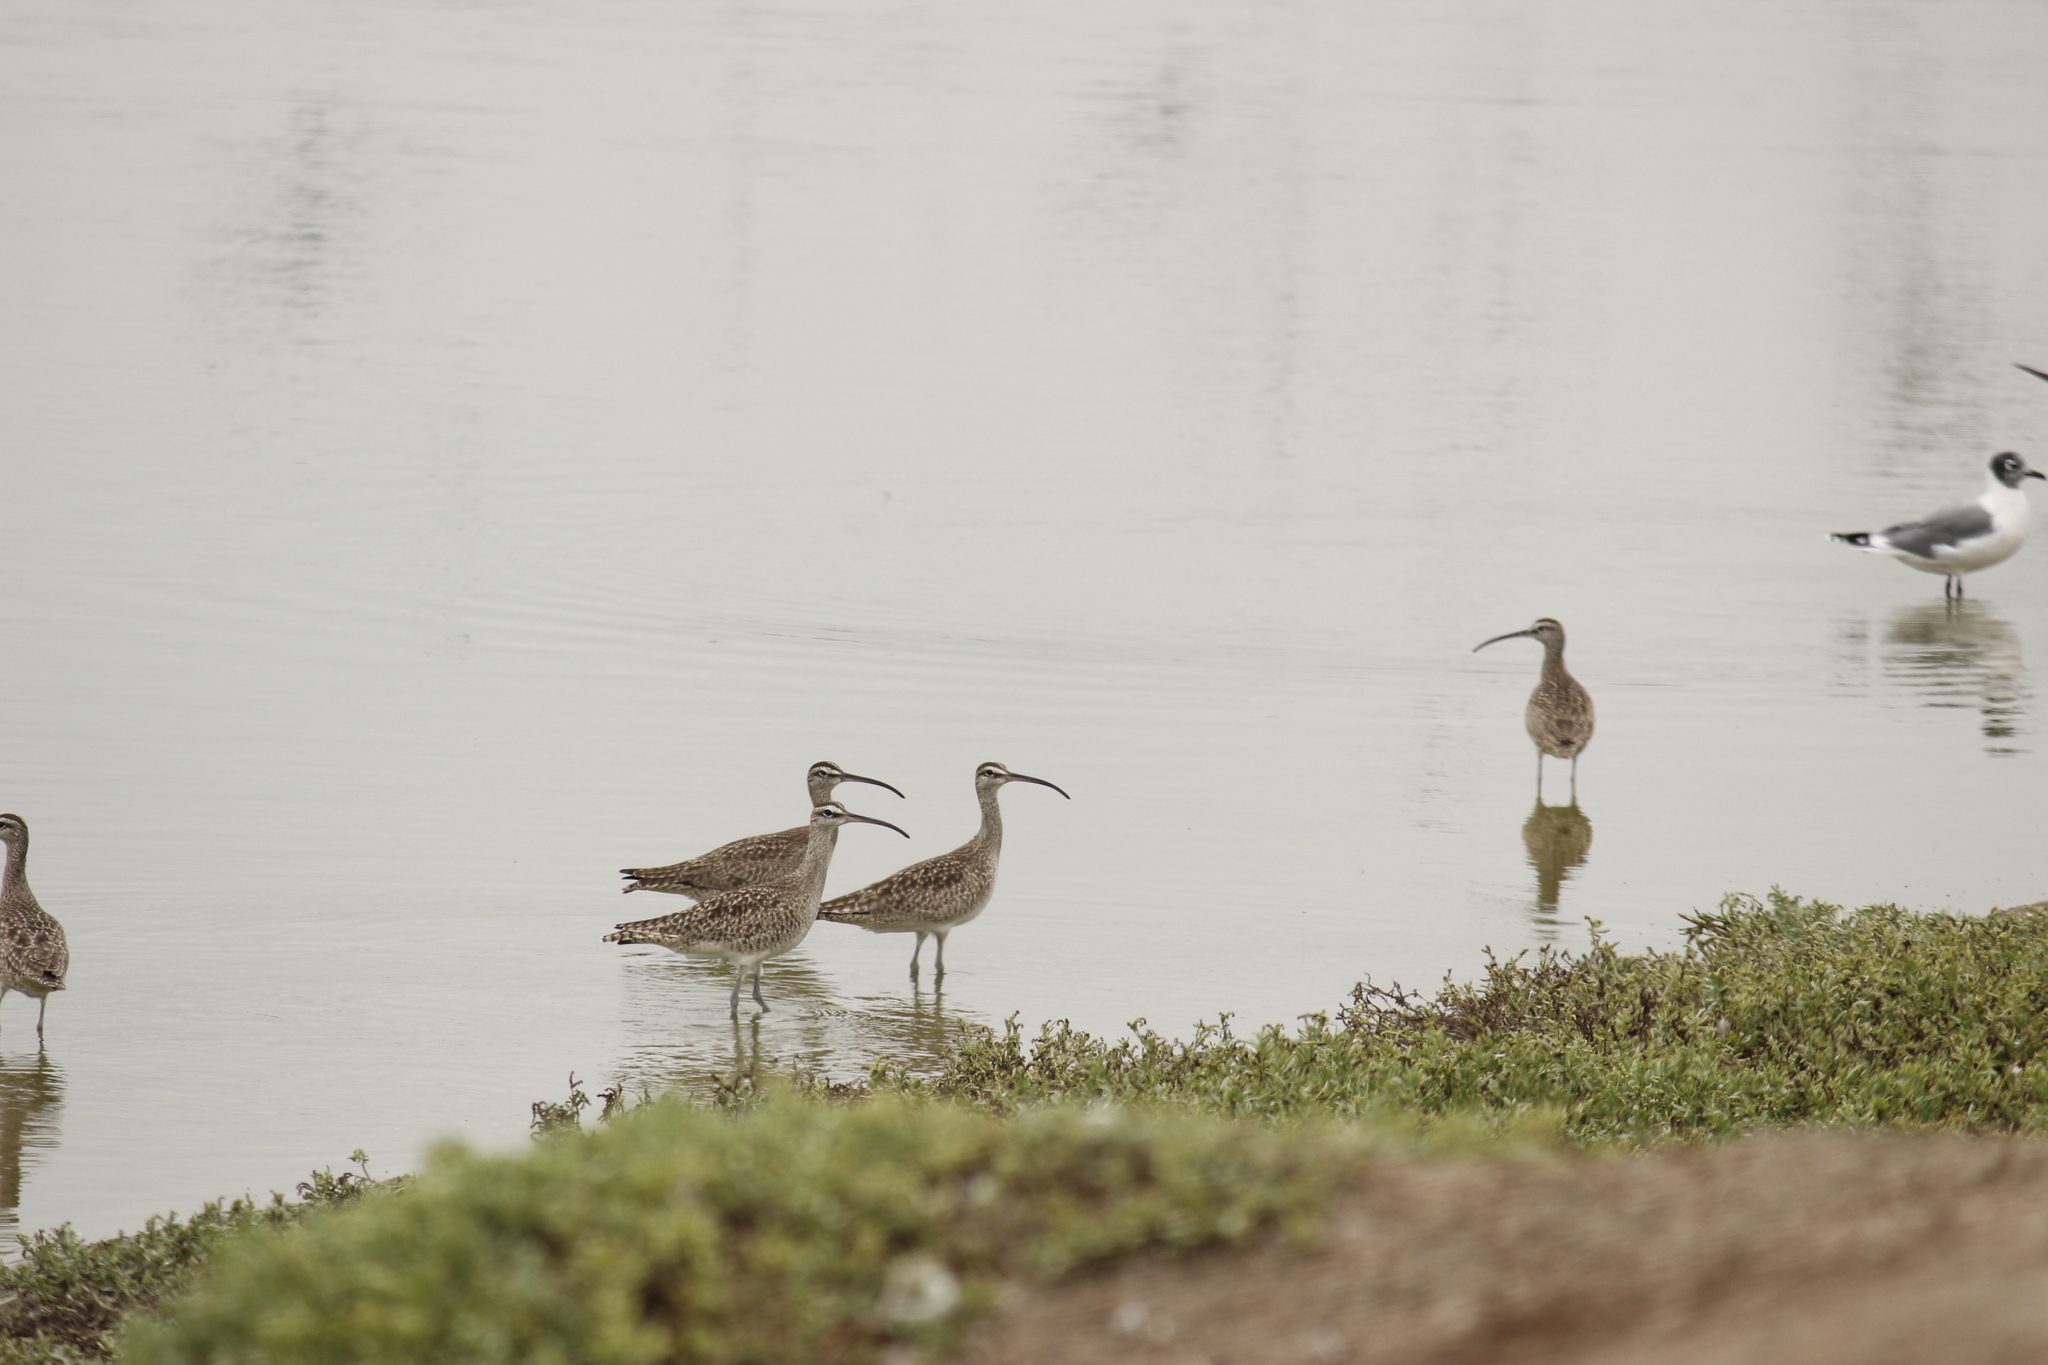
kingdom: Animalia
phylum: Chordata
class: Aves
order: Charadriiformes
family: Scolopacidae
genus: Numenius
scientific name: Numenius phaeopus
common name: Whimbrel
